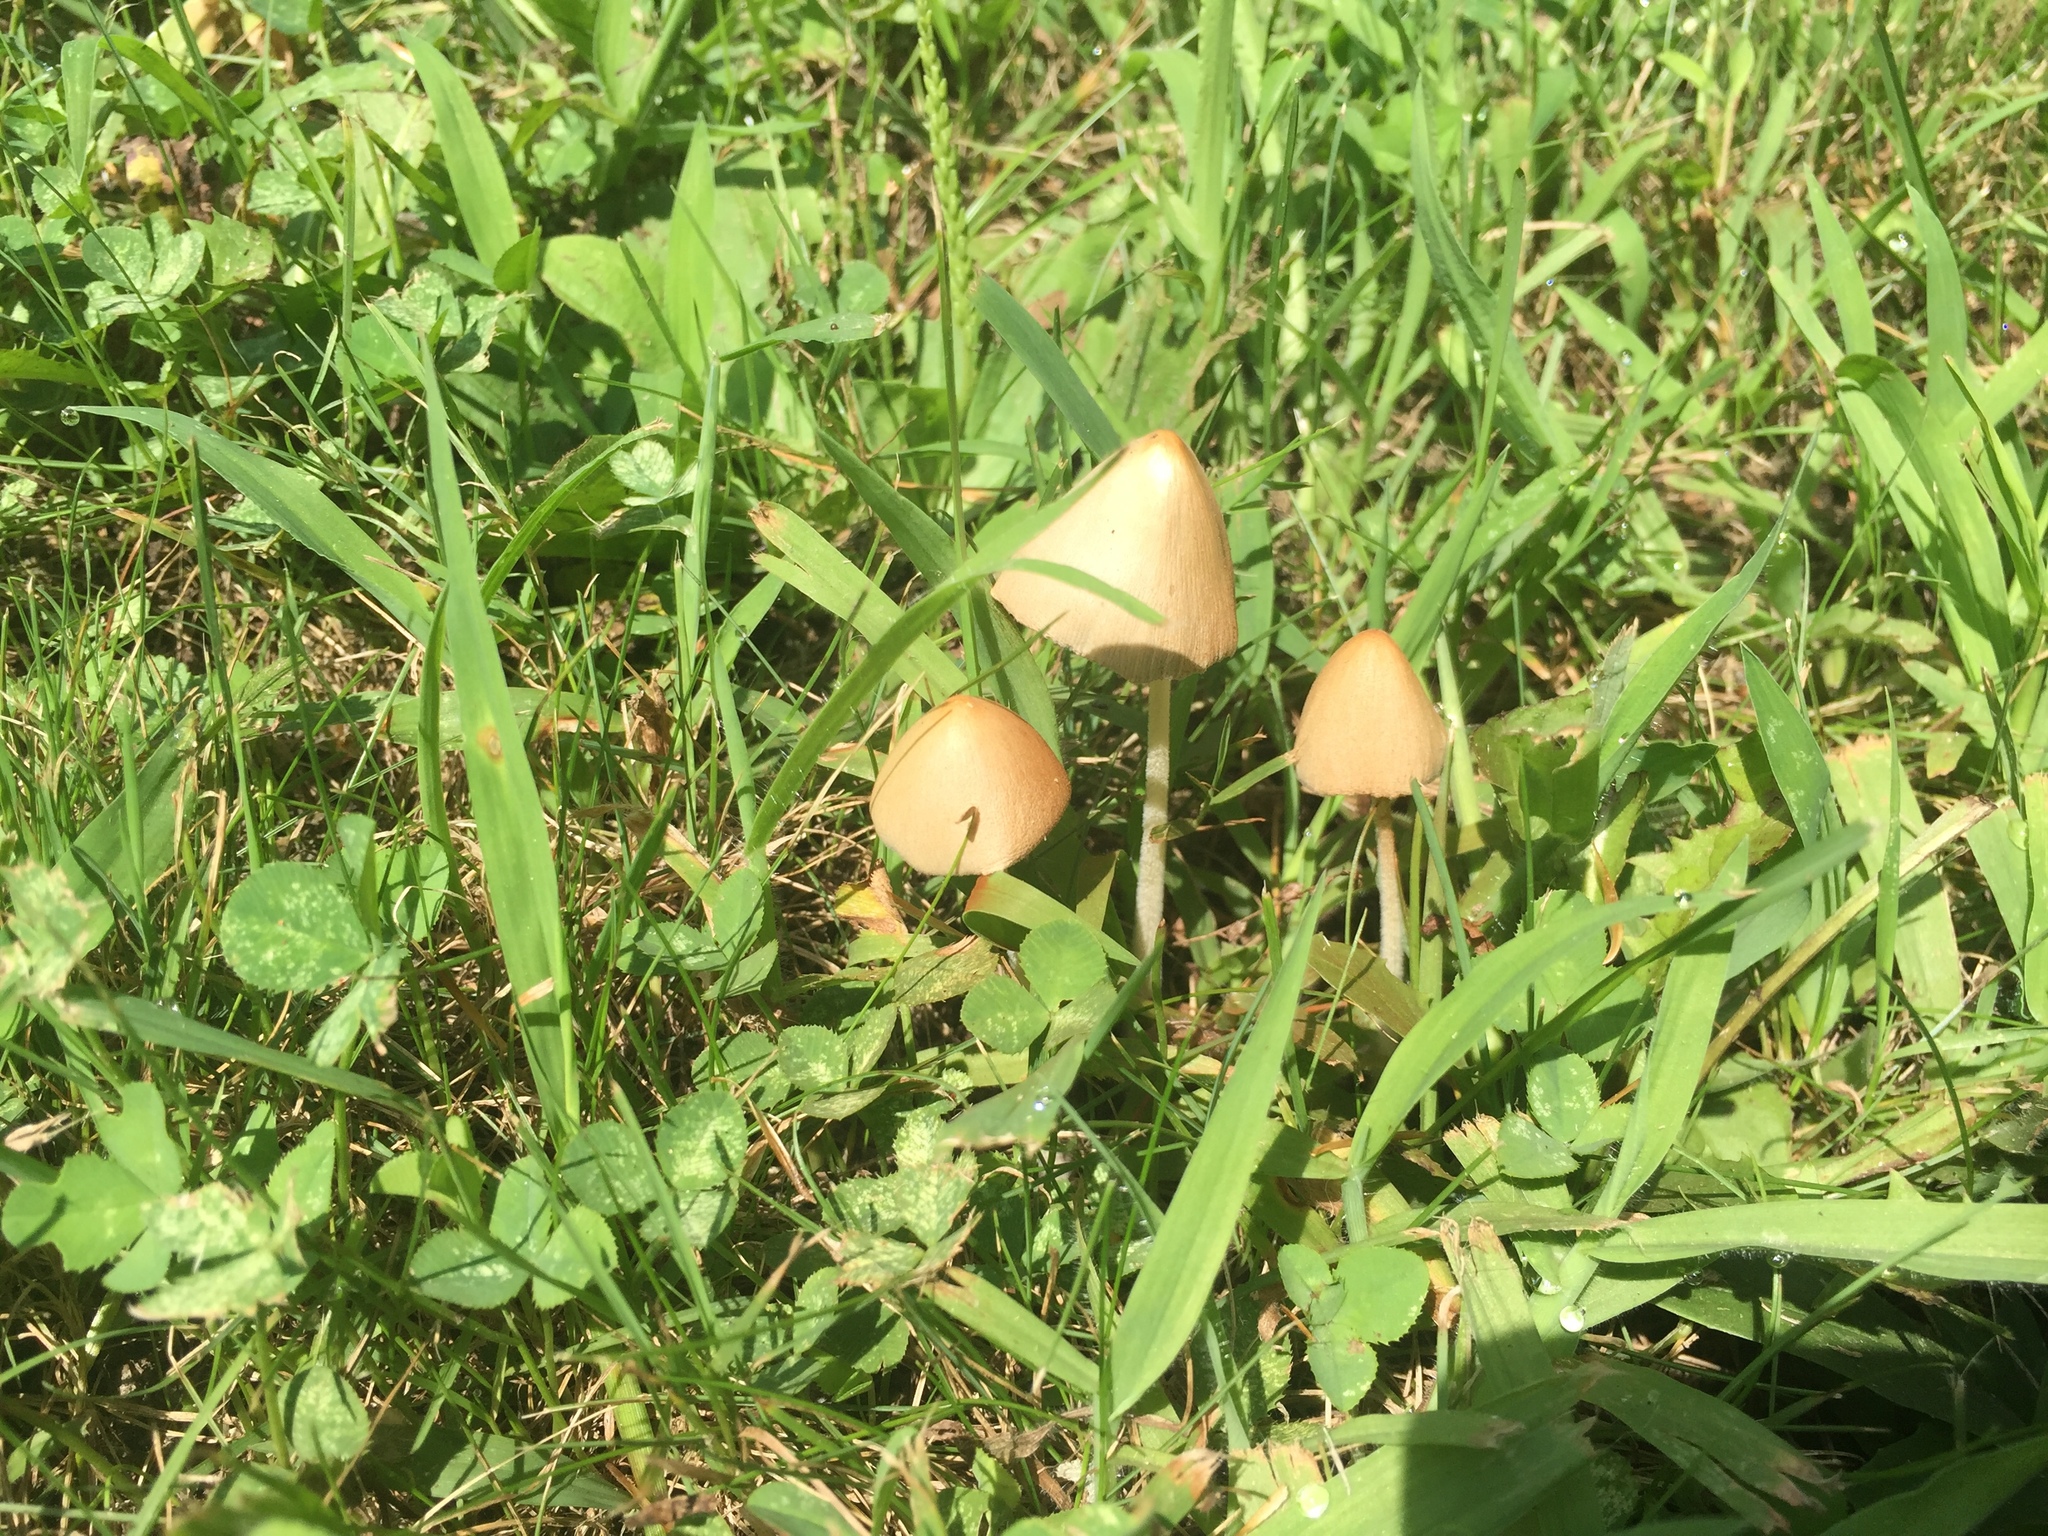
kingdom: Fungi
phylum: Basidiomycota
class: Agaricomycetes
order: Agaricales
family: Bolbitiaceae
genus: Conocybe
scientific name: Conocybe apala
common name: Milky conecap
